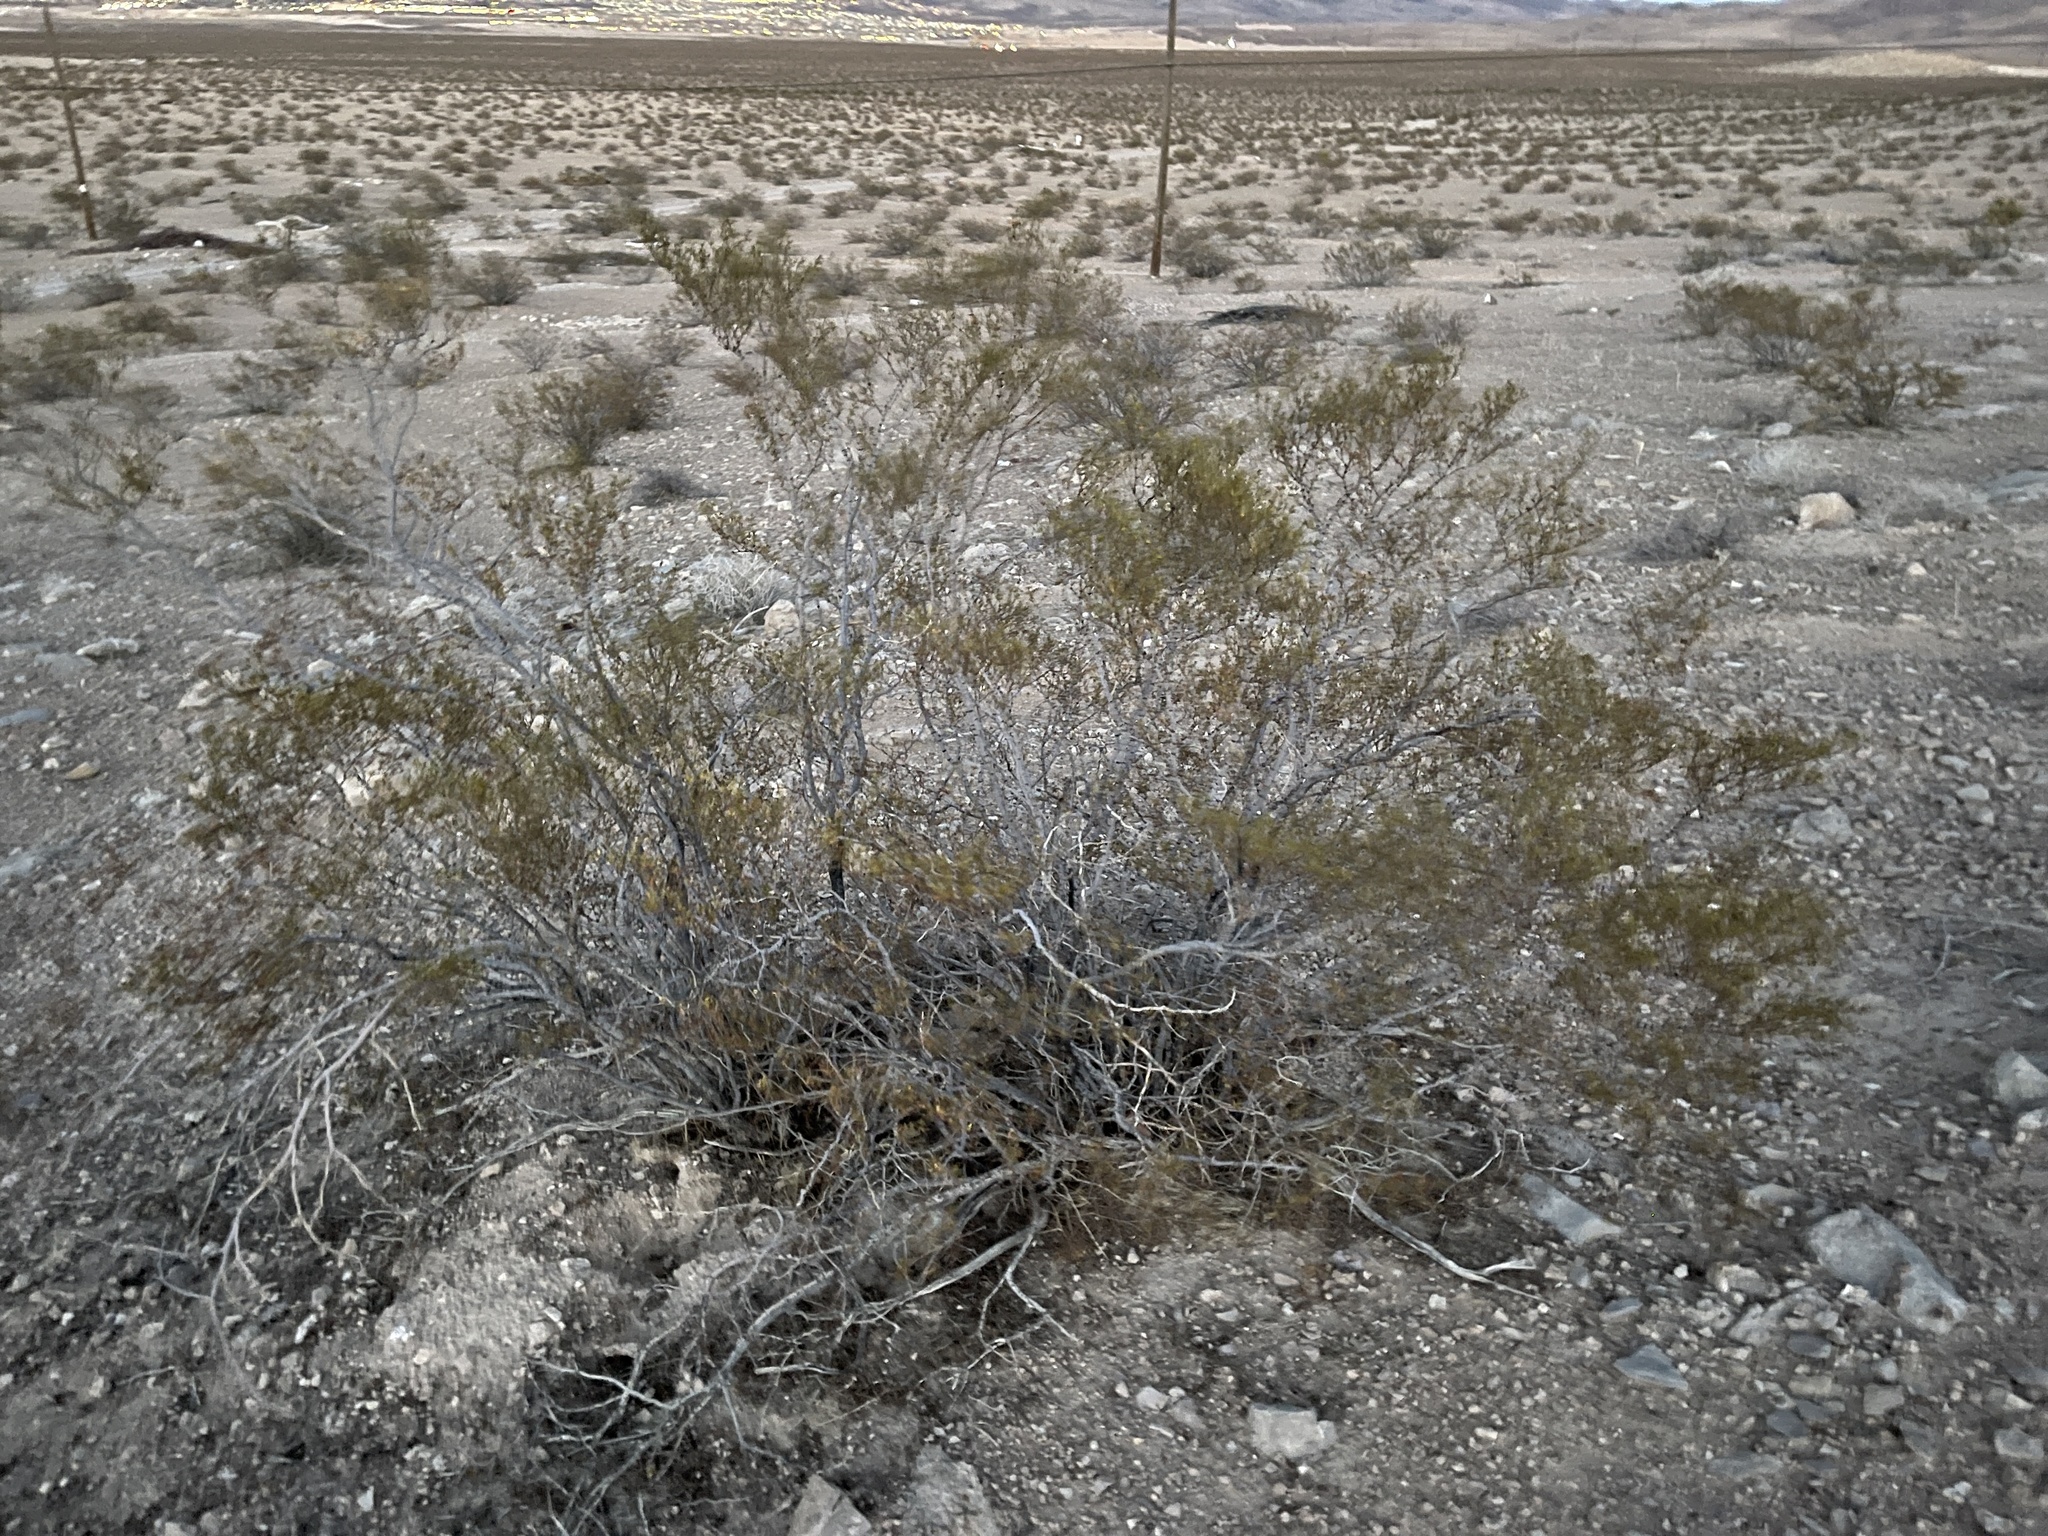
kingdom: Plantae
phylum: Tracheophyta
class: Magnoliopsida
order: Zygophyllales
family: Zygophyllaceae
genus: Larrea
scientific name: Larrea tridentata
